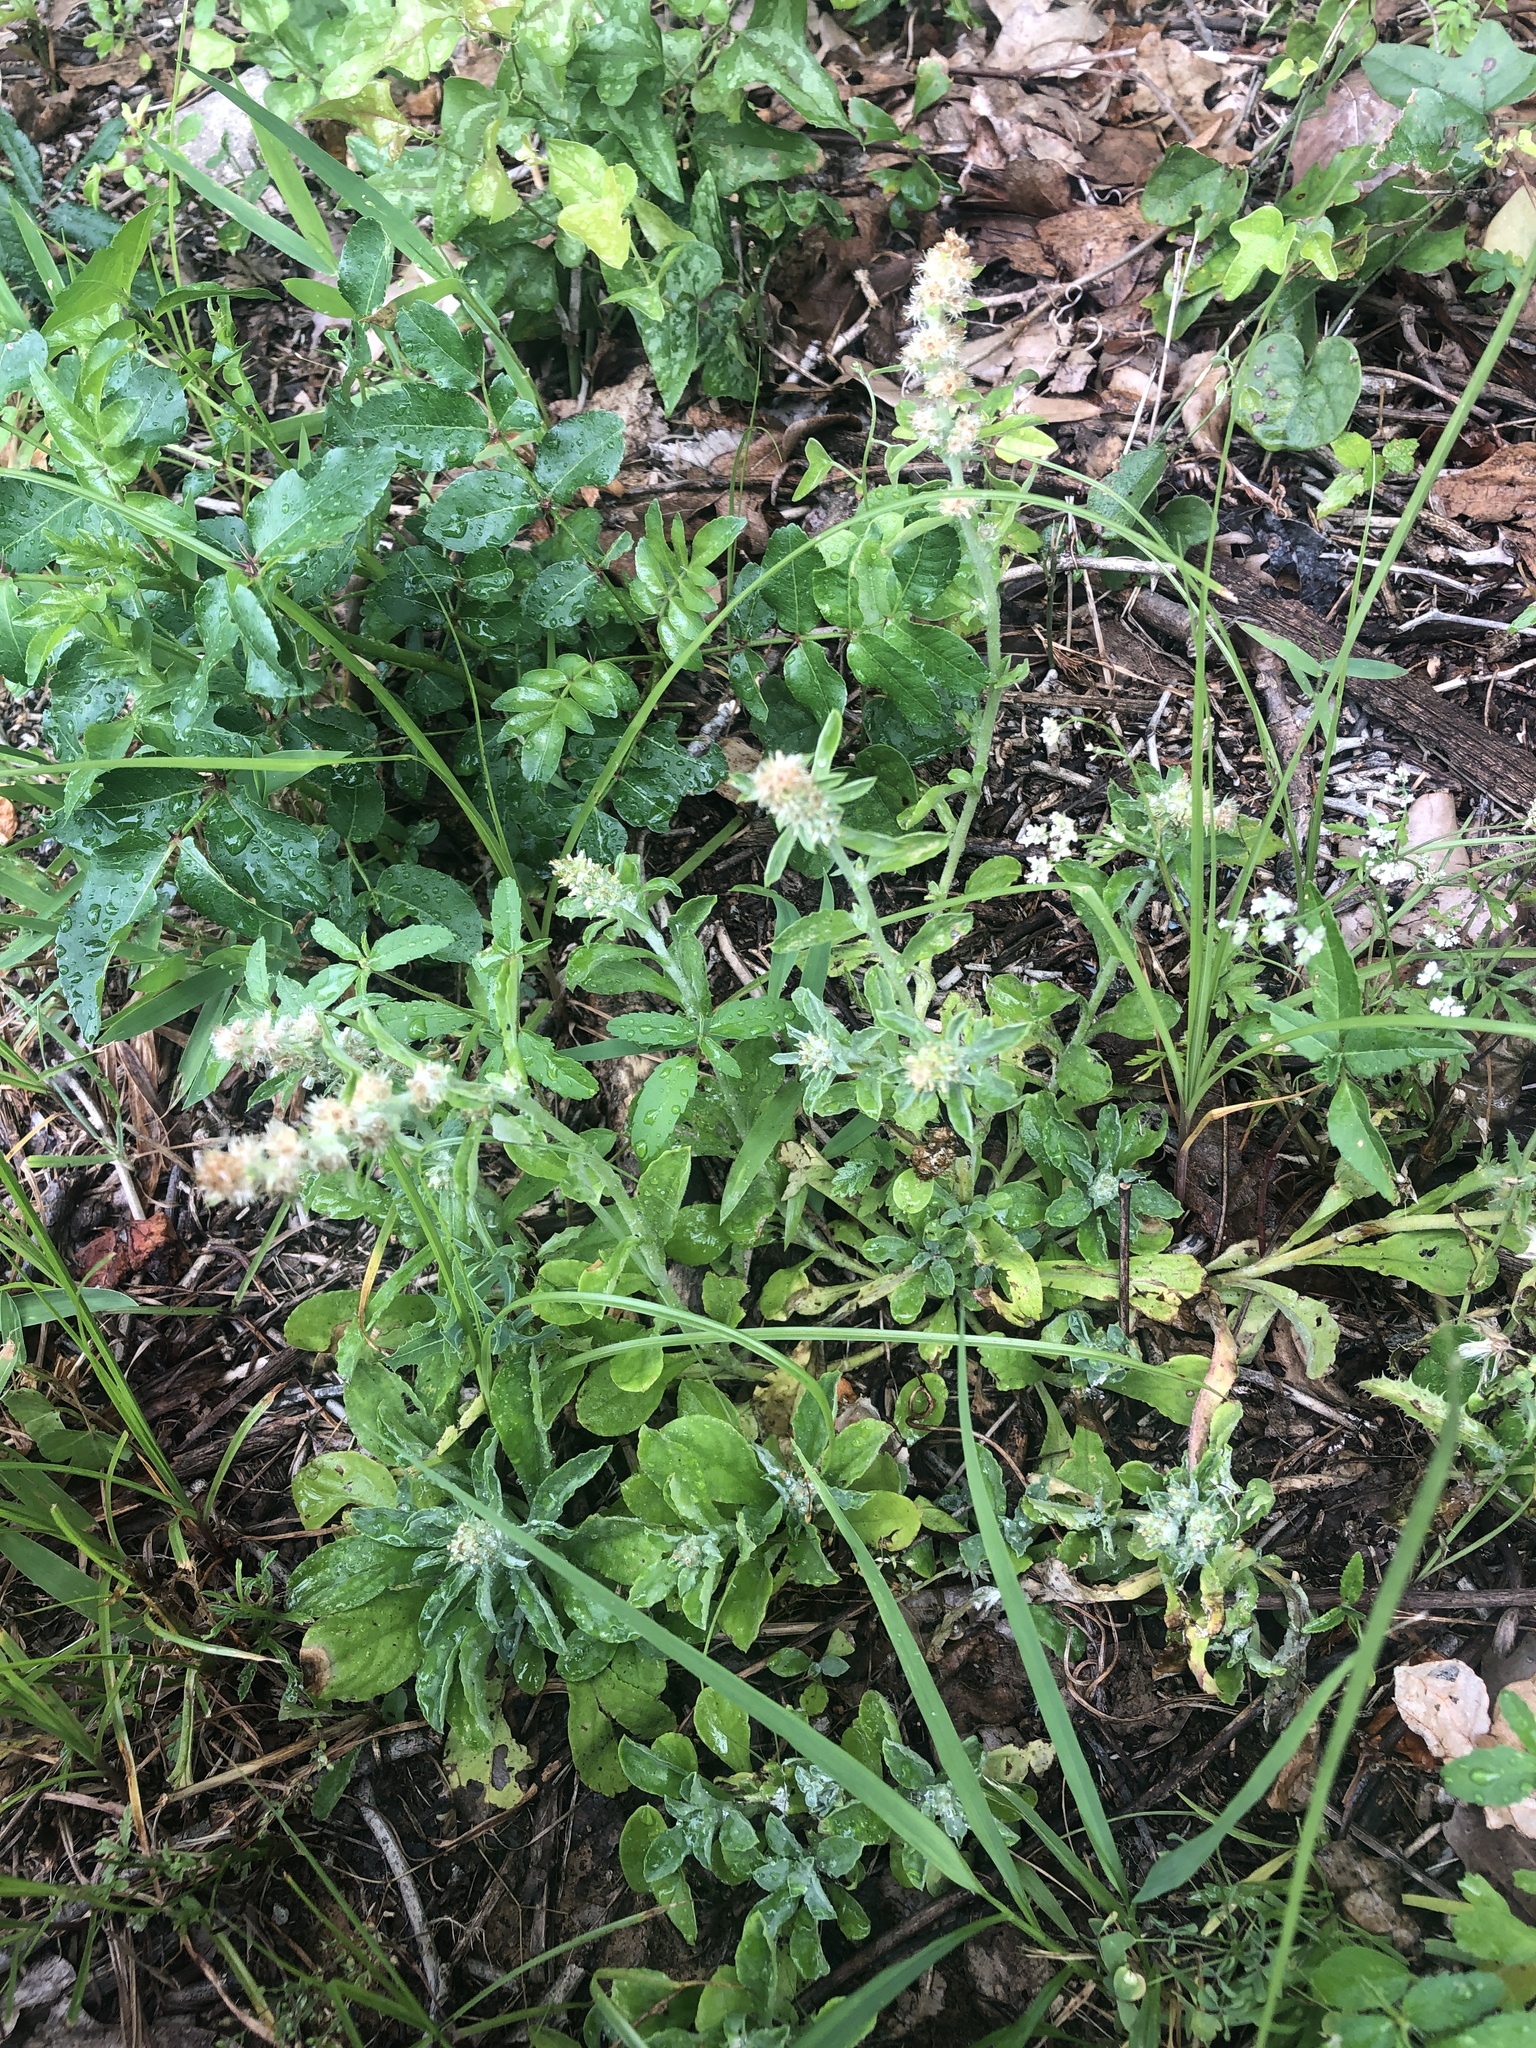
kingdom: Plantae
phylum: Tracheophyta
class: Magnoliopsida
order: Asterales
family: Asteraceae
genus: Gamochaeta
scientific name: Gamochaeta pensylvanica
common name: Pennsylvania everlasting
